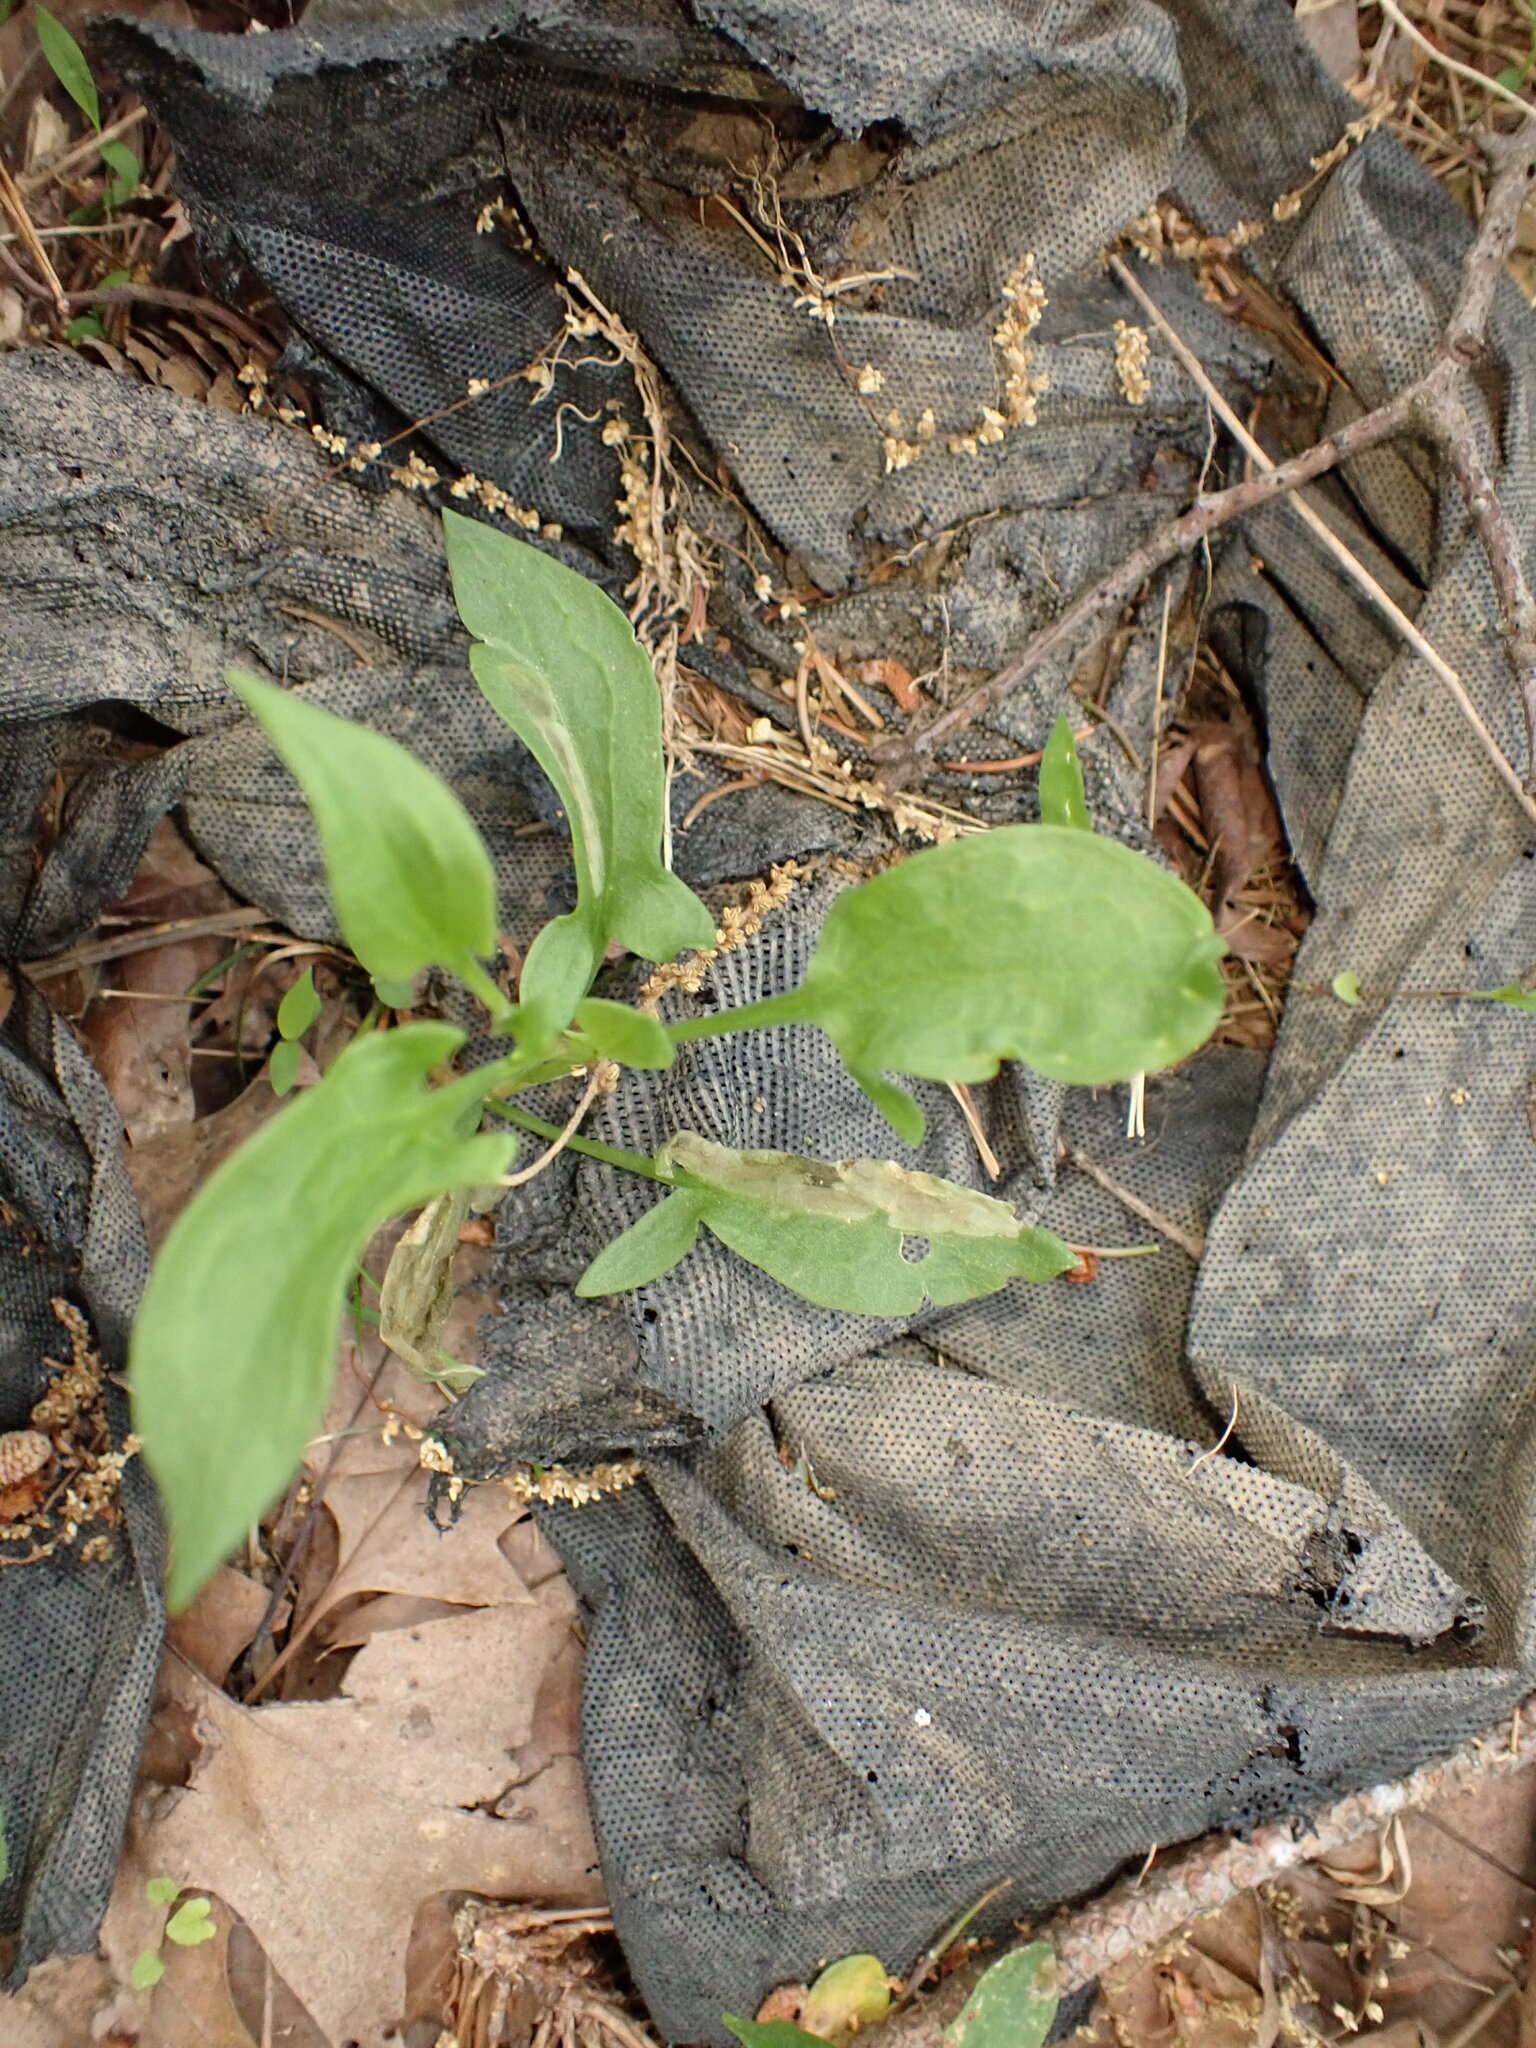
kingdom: Plantae
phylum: Tracheophyta
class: Magnoliopsida
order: Caryophyllales
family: Polygonaceae
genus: Rumex
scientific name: Rumex acetosella
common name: Common sheep sorrel
